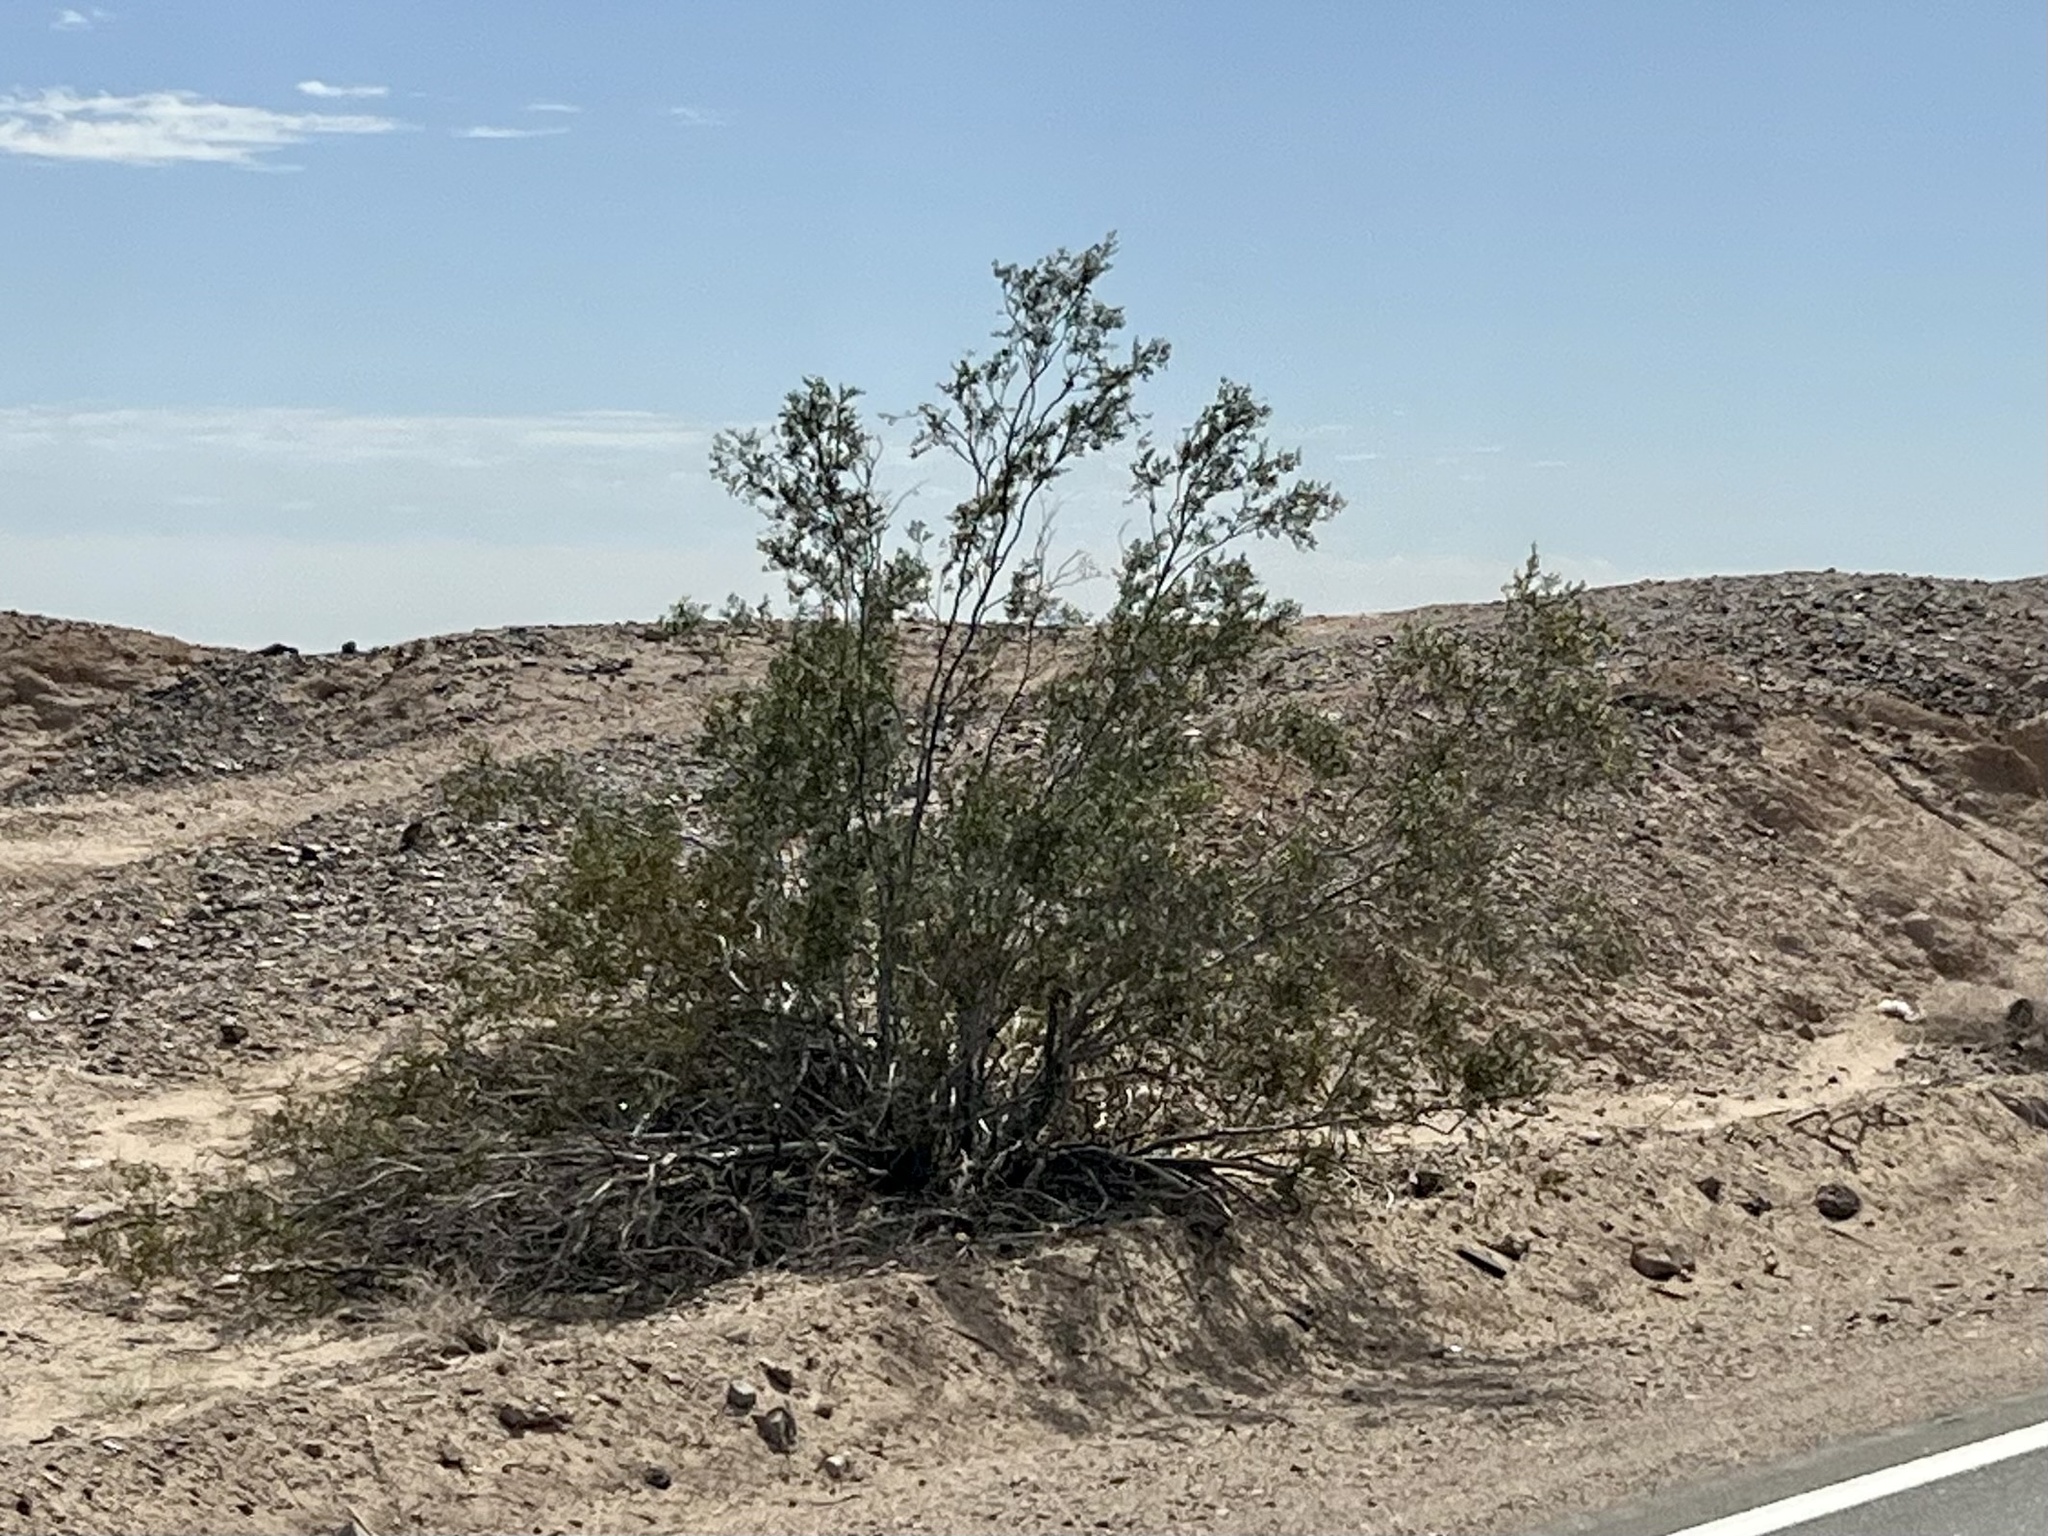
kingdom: Plantae
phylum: Tracheophyta
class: Magnoliopsida
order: Zygophyllales
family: Zygophyllaceae
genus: Larrea
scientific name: Larrea tridentata
